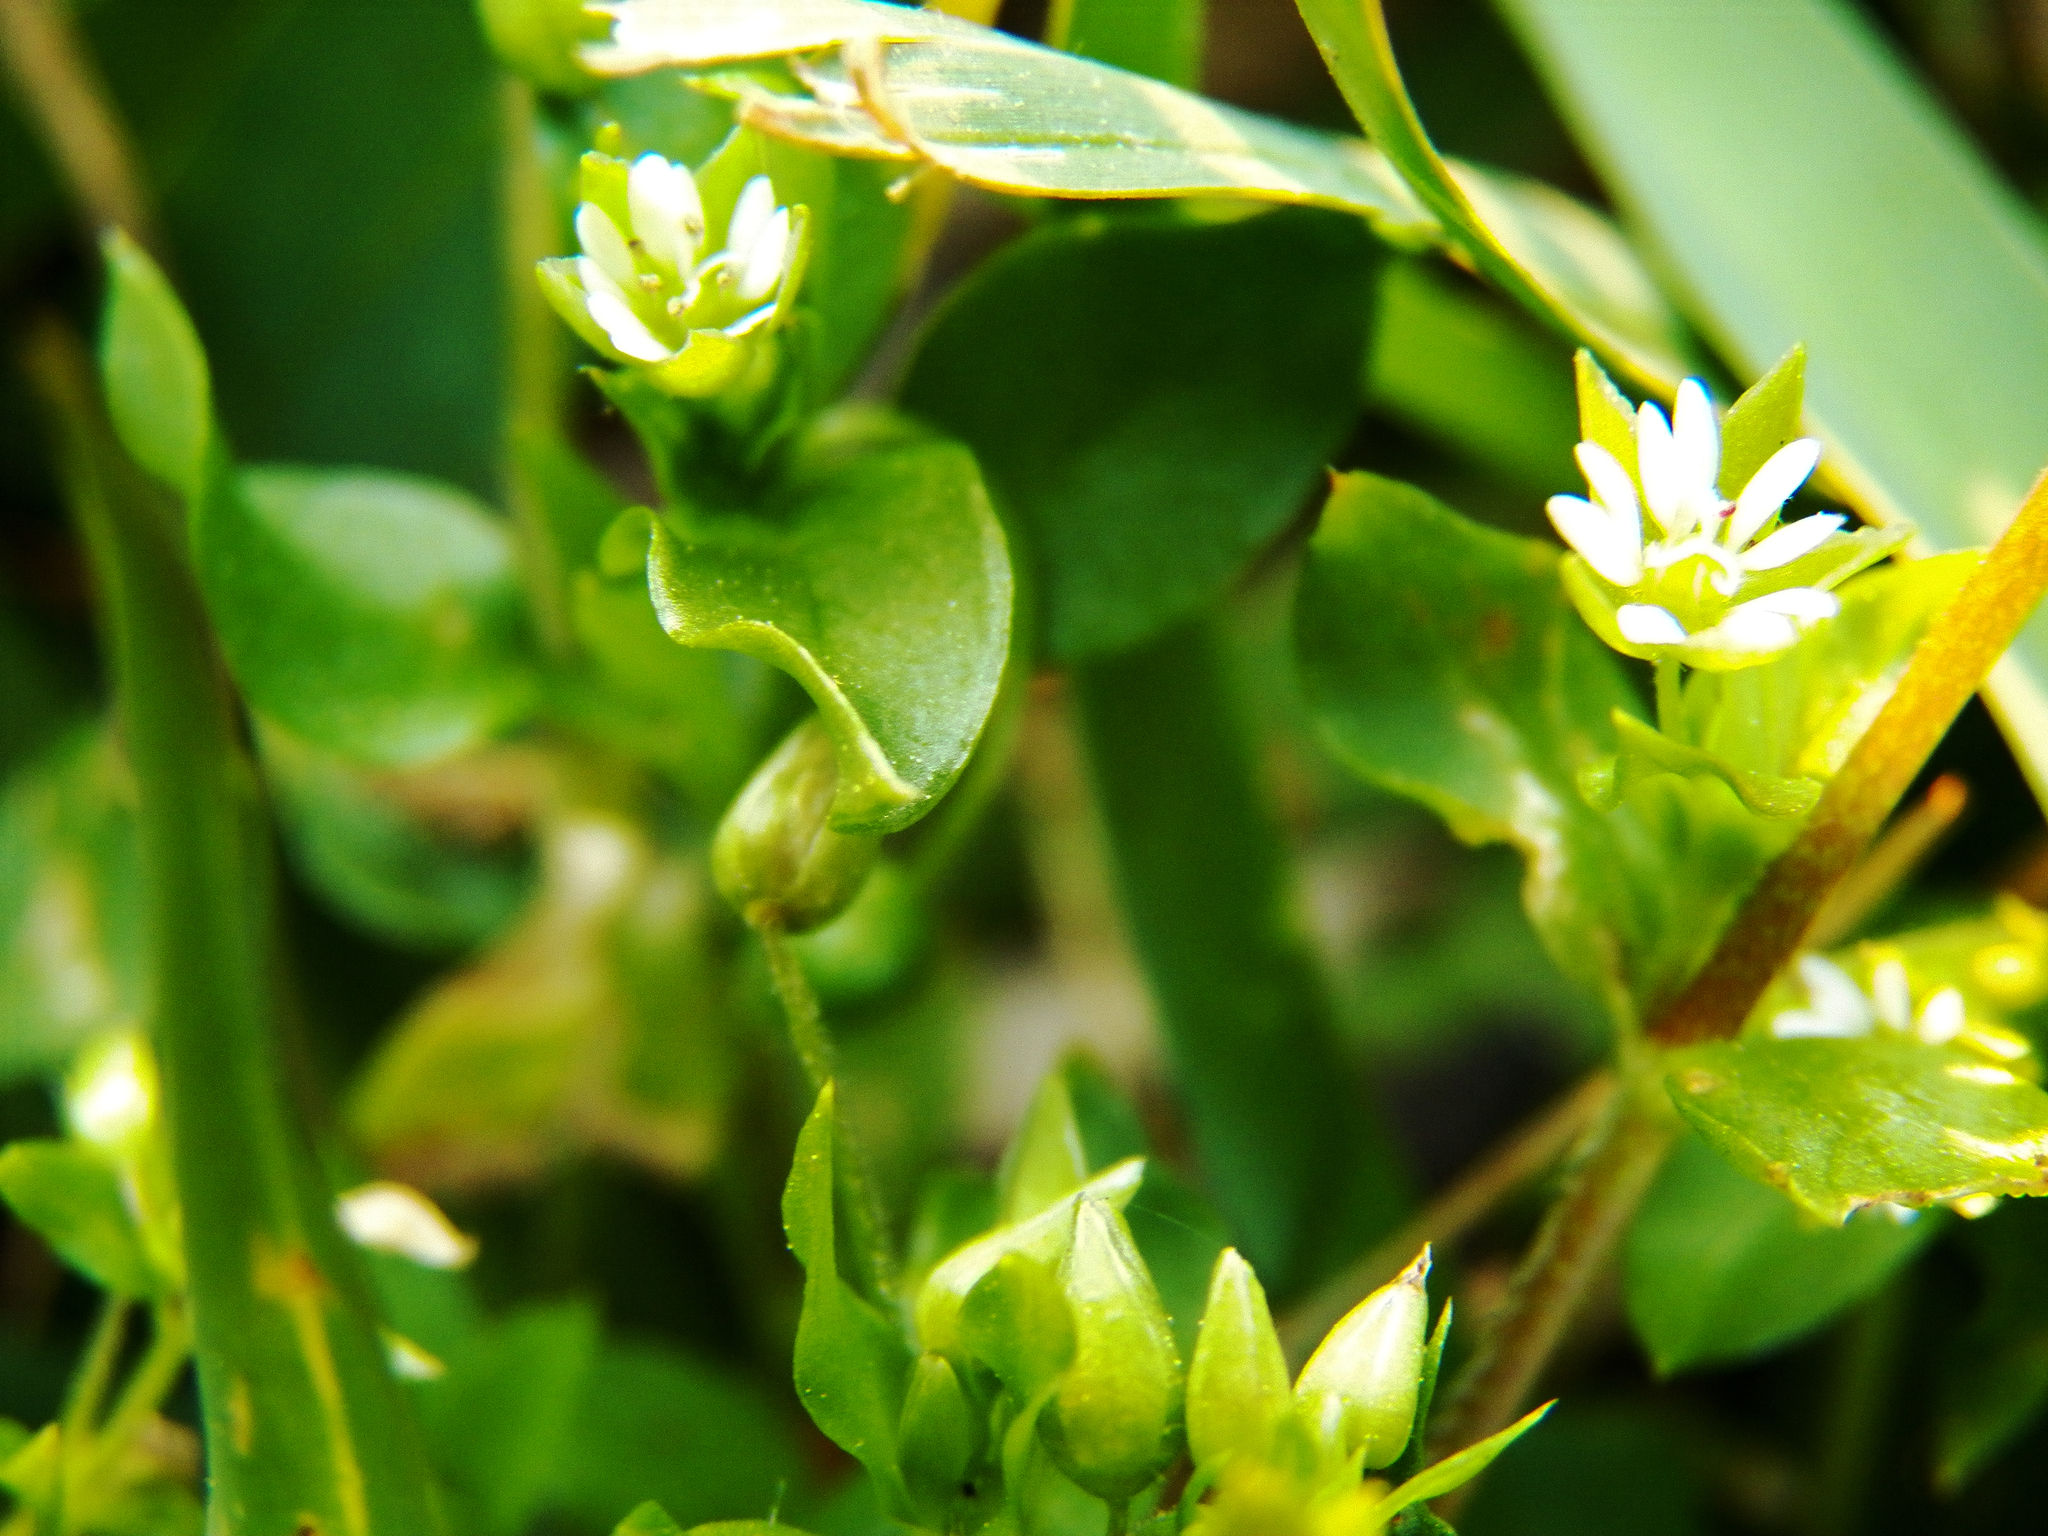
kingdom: Plantae
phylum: Tracheophyta
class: Magnoliopsida
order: Caryophyllales
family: Caryophyllaceae
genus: Stellaria
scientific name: Stellaria media
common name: Common chickweed
